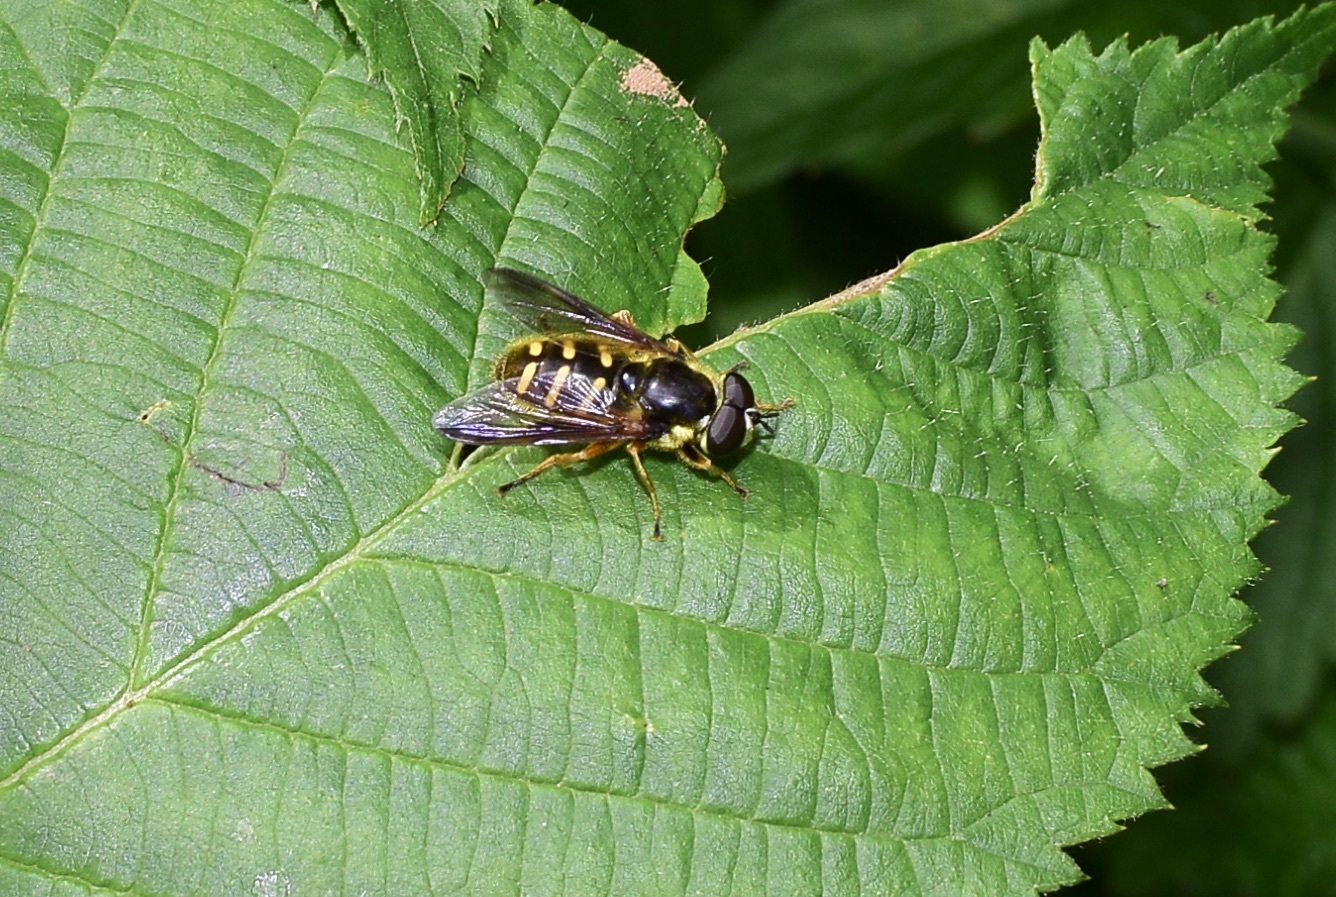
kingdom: Animalia
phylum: Arthropoda
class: Insecta
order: Diptera
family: Syrphidae
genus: Sericomyia
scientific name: Sericomyia chrysotoxoides
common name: Oblique-banded pond fly
